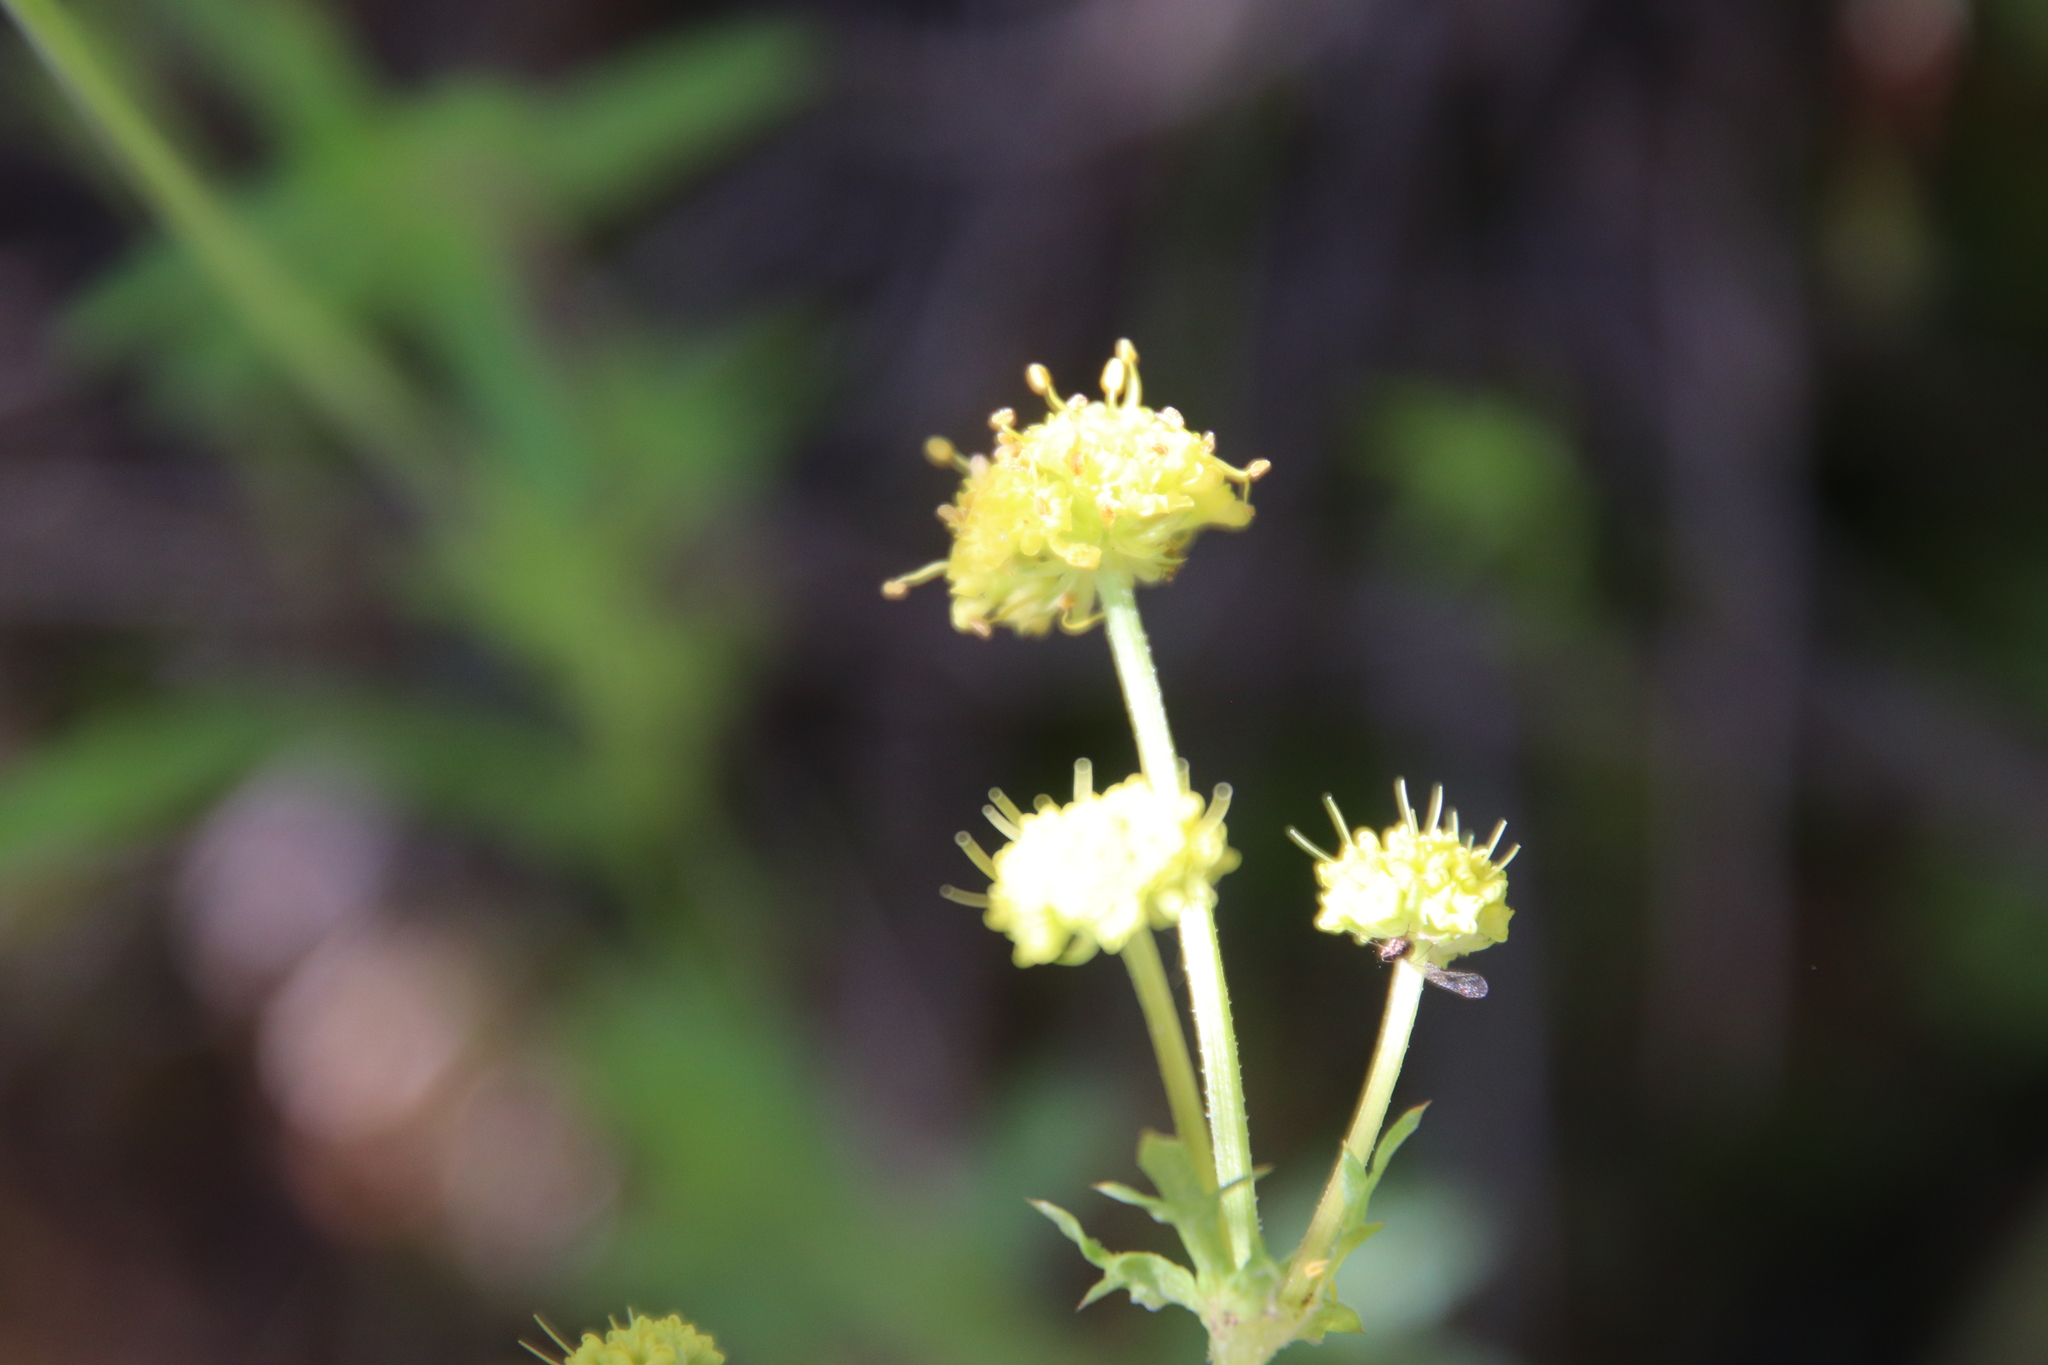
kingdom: Plantae
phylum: Tracheophyta
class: Magnoliopsida
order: Apiales
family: Apiaceae
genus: Sanicula
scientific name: Sanicula arguta
